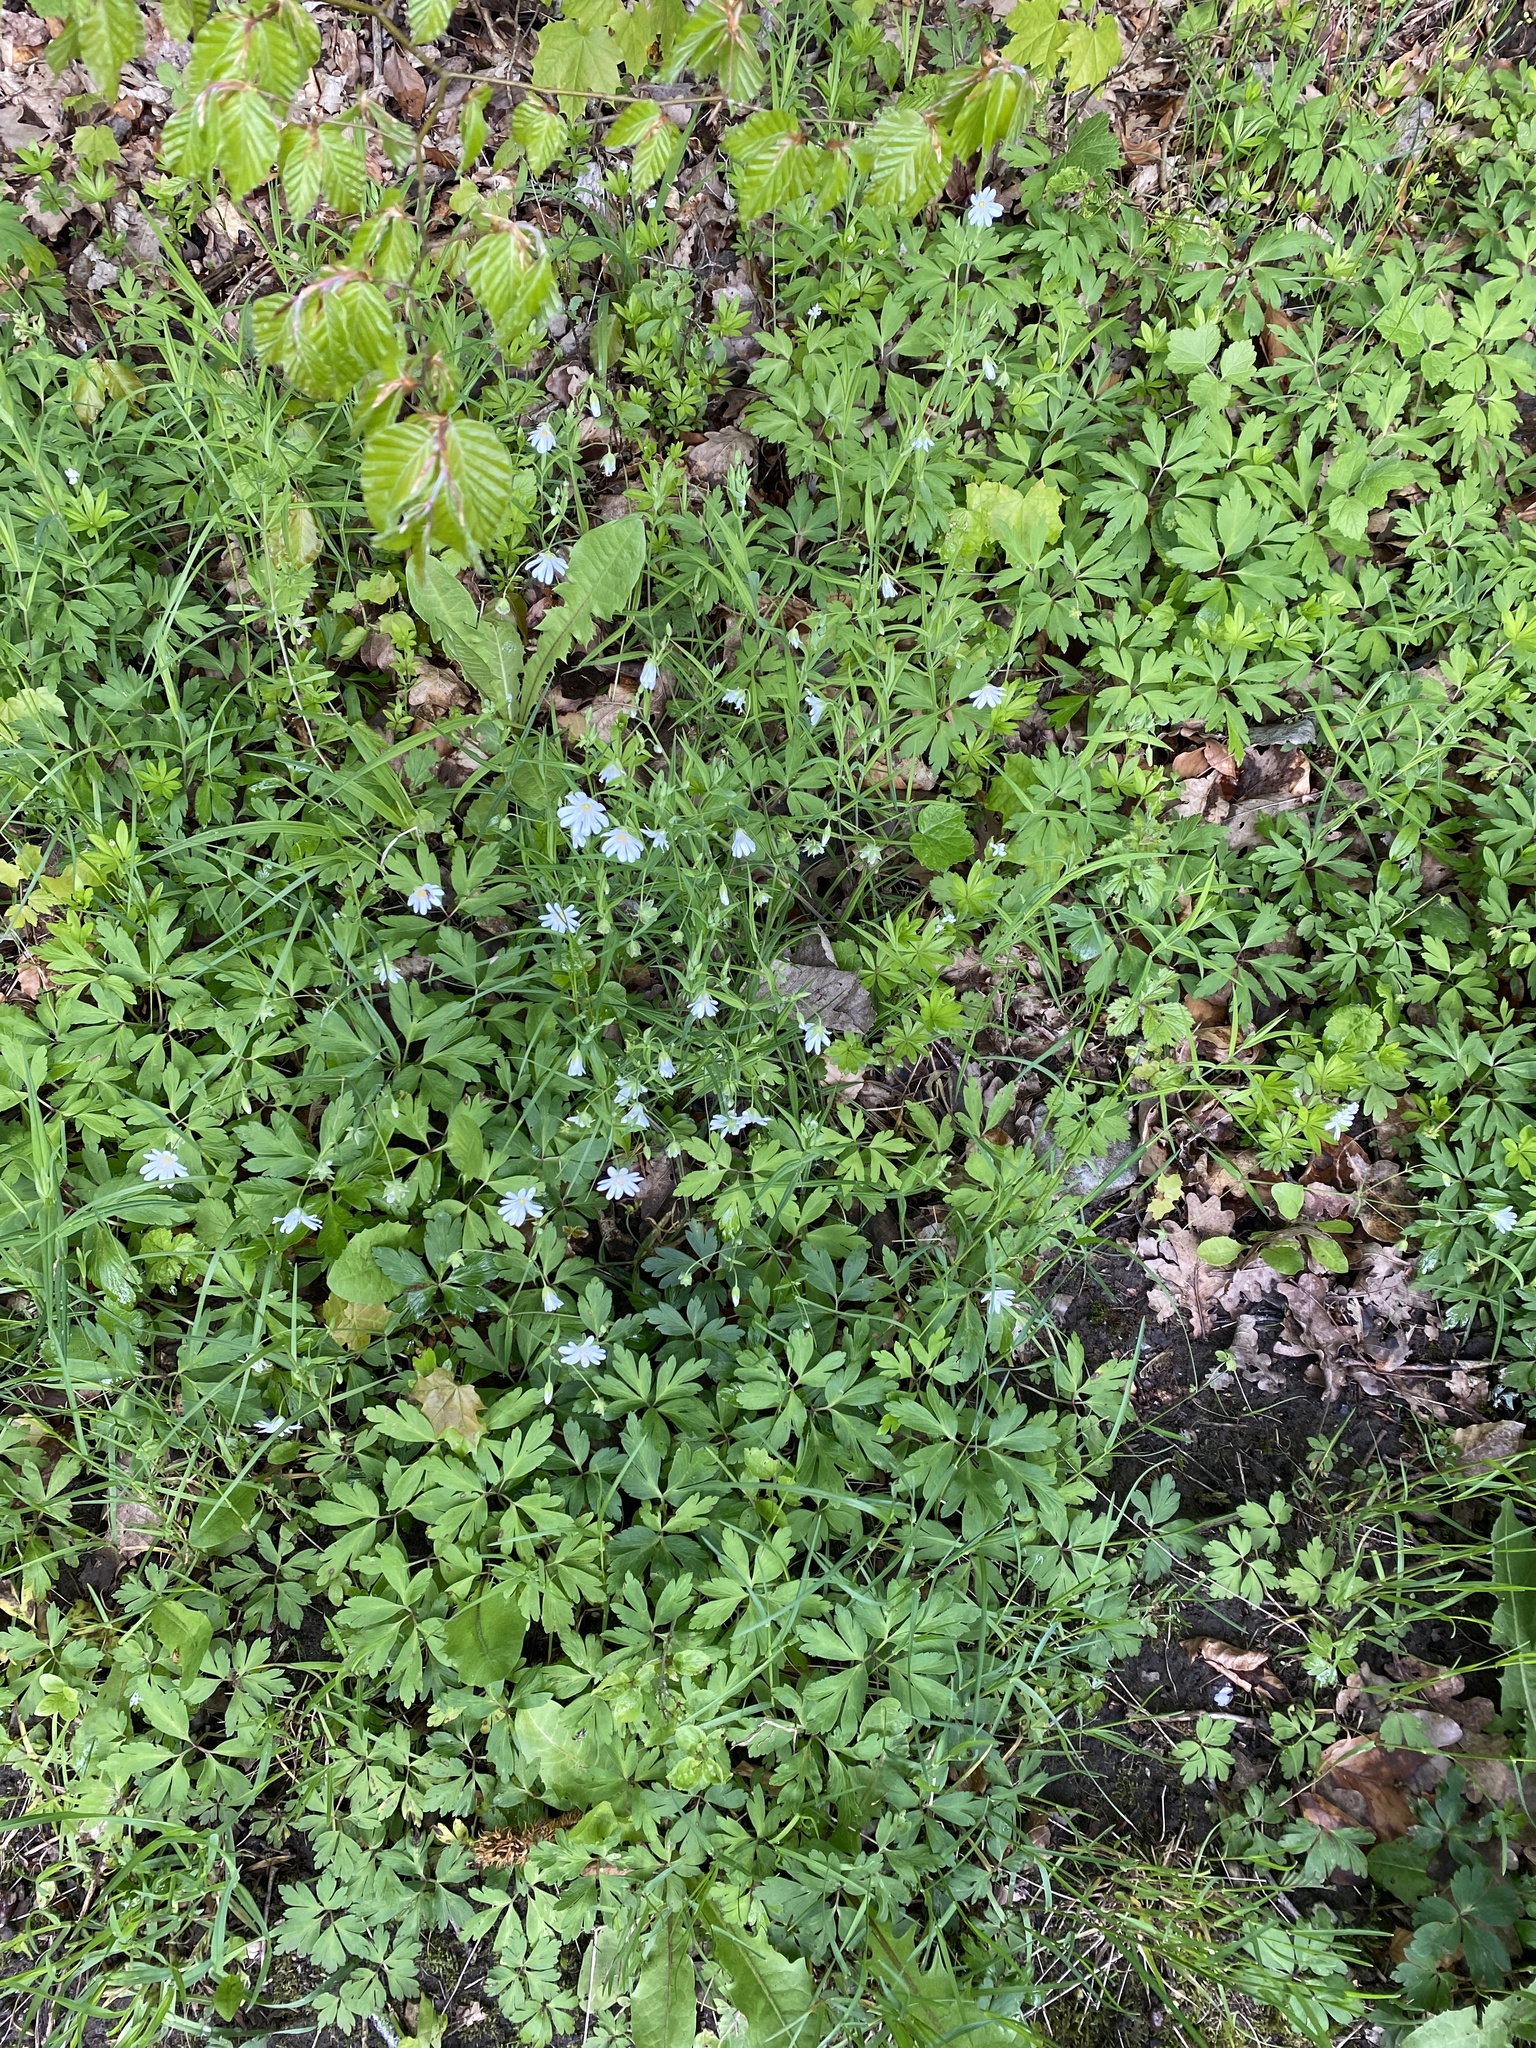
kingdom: Plantae
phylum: Tracheophyta
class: Magnoliopsida
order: Caryophyllales
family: Caryophyllaceae
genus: Rabelera
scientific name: Rabelera holostea
